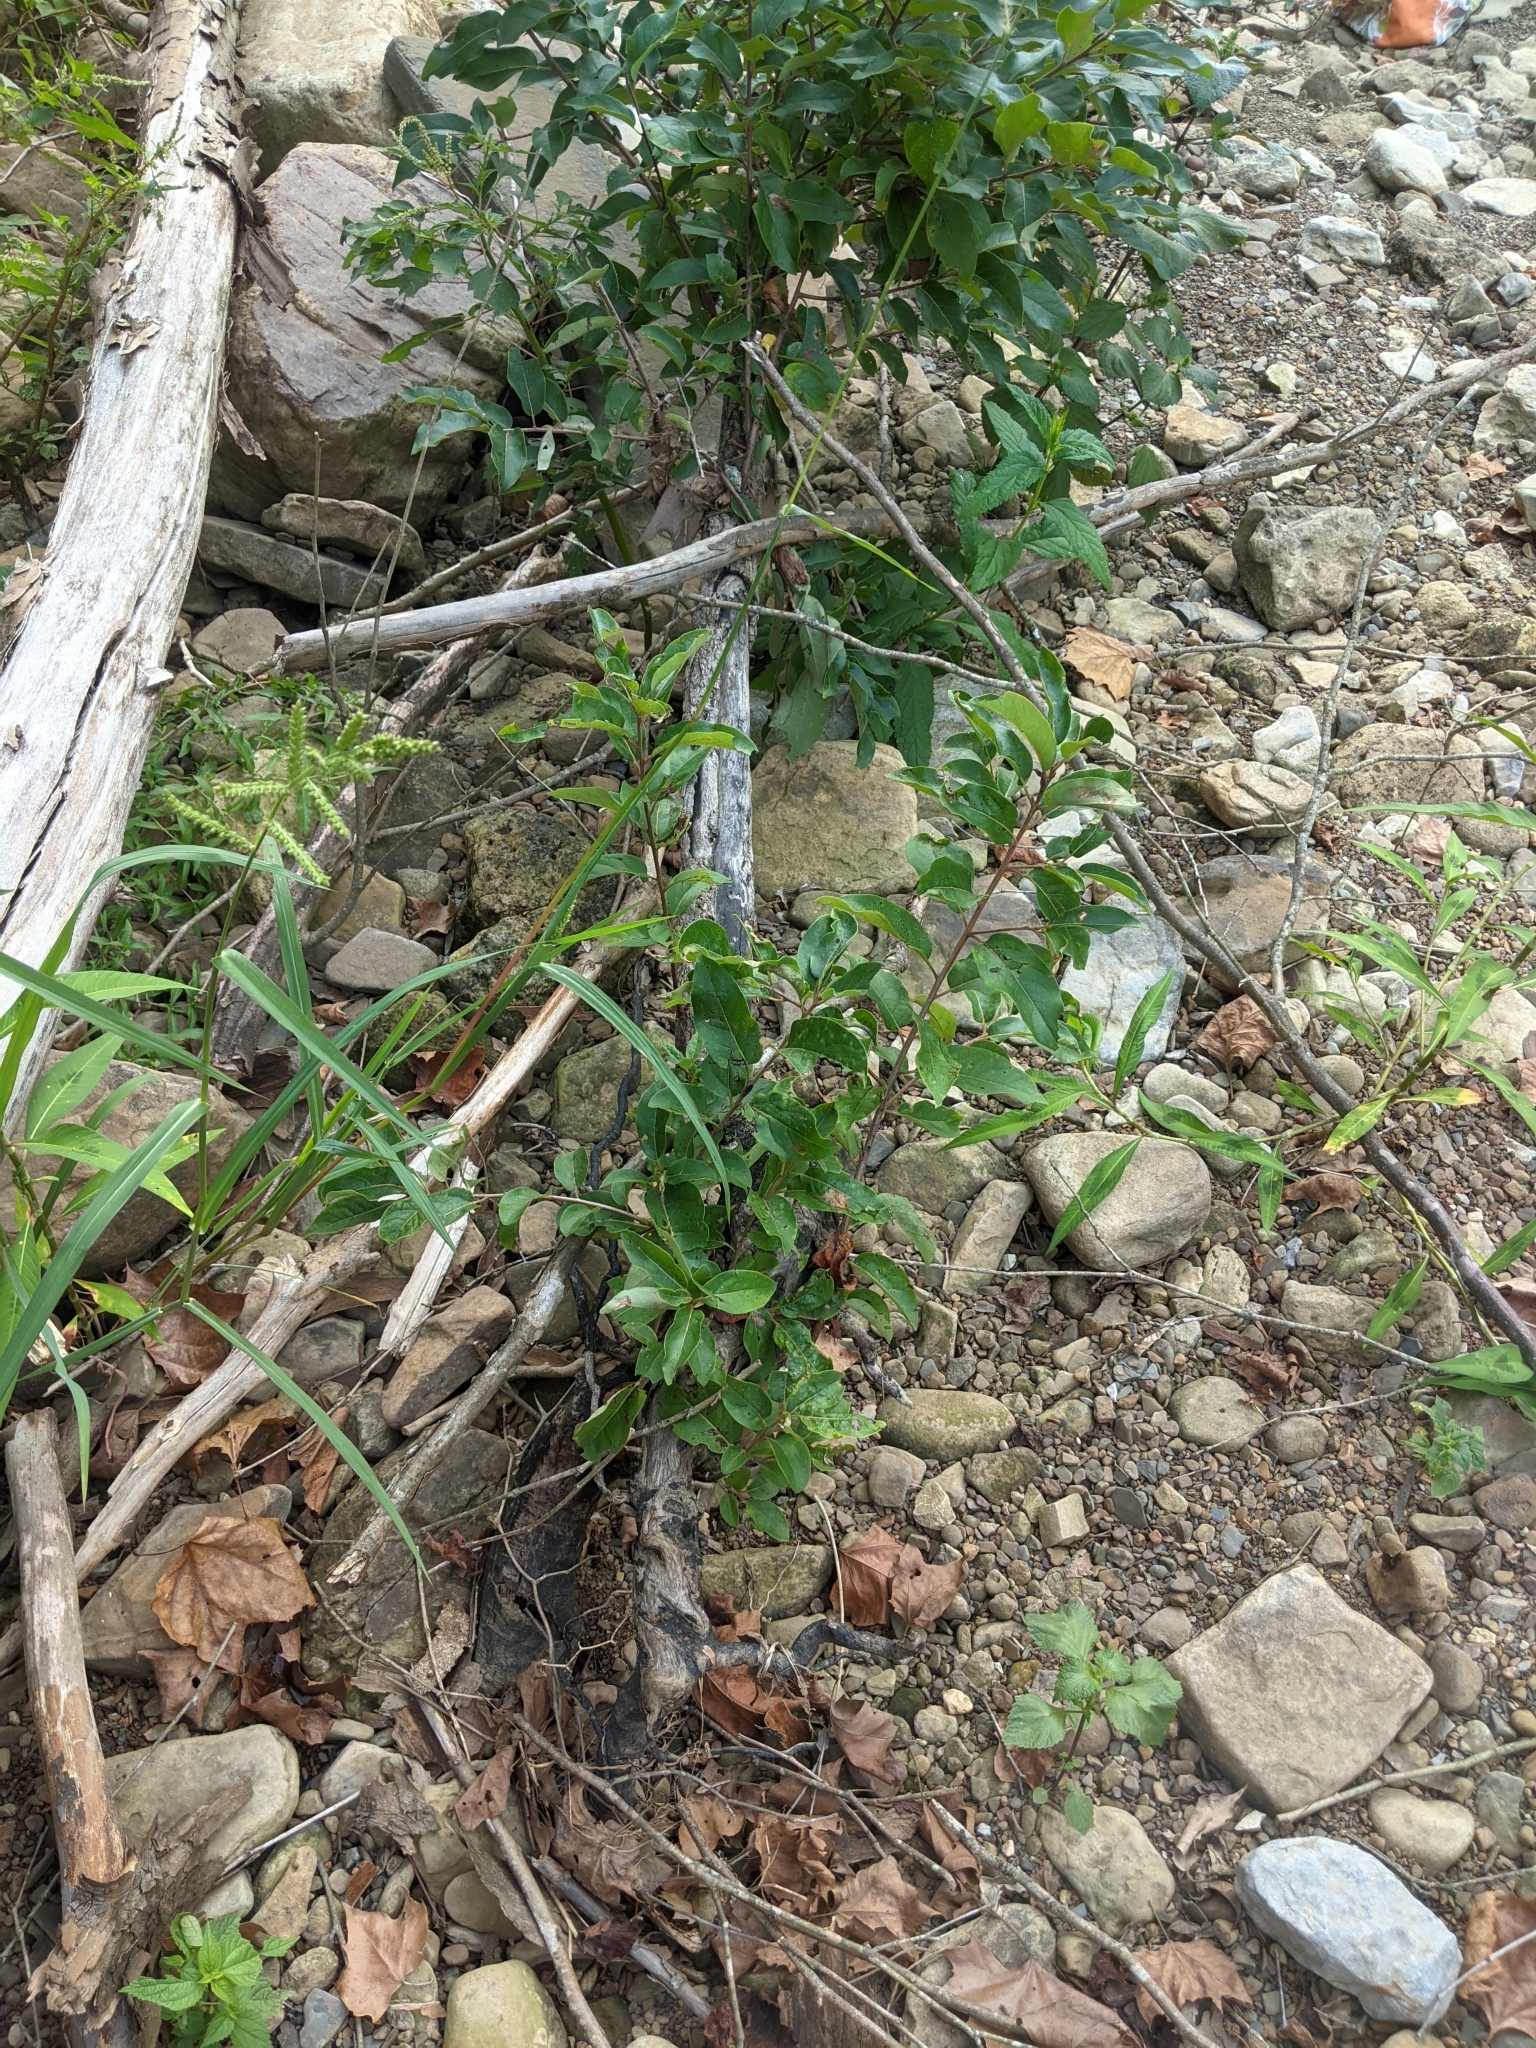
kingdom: Plantae
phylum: Tracheophyta
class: Magnoliopsida
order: Ericales
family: Ebenaceae
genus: Diospyros
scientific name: Diospyros virginiana
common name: Persimmon
